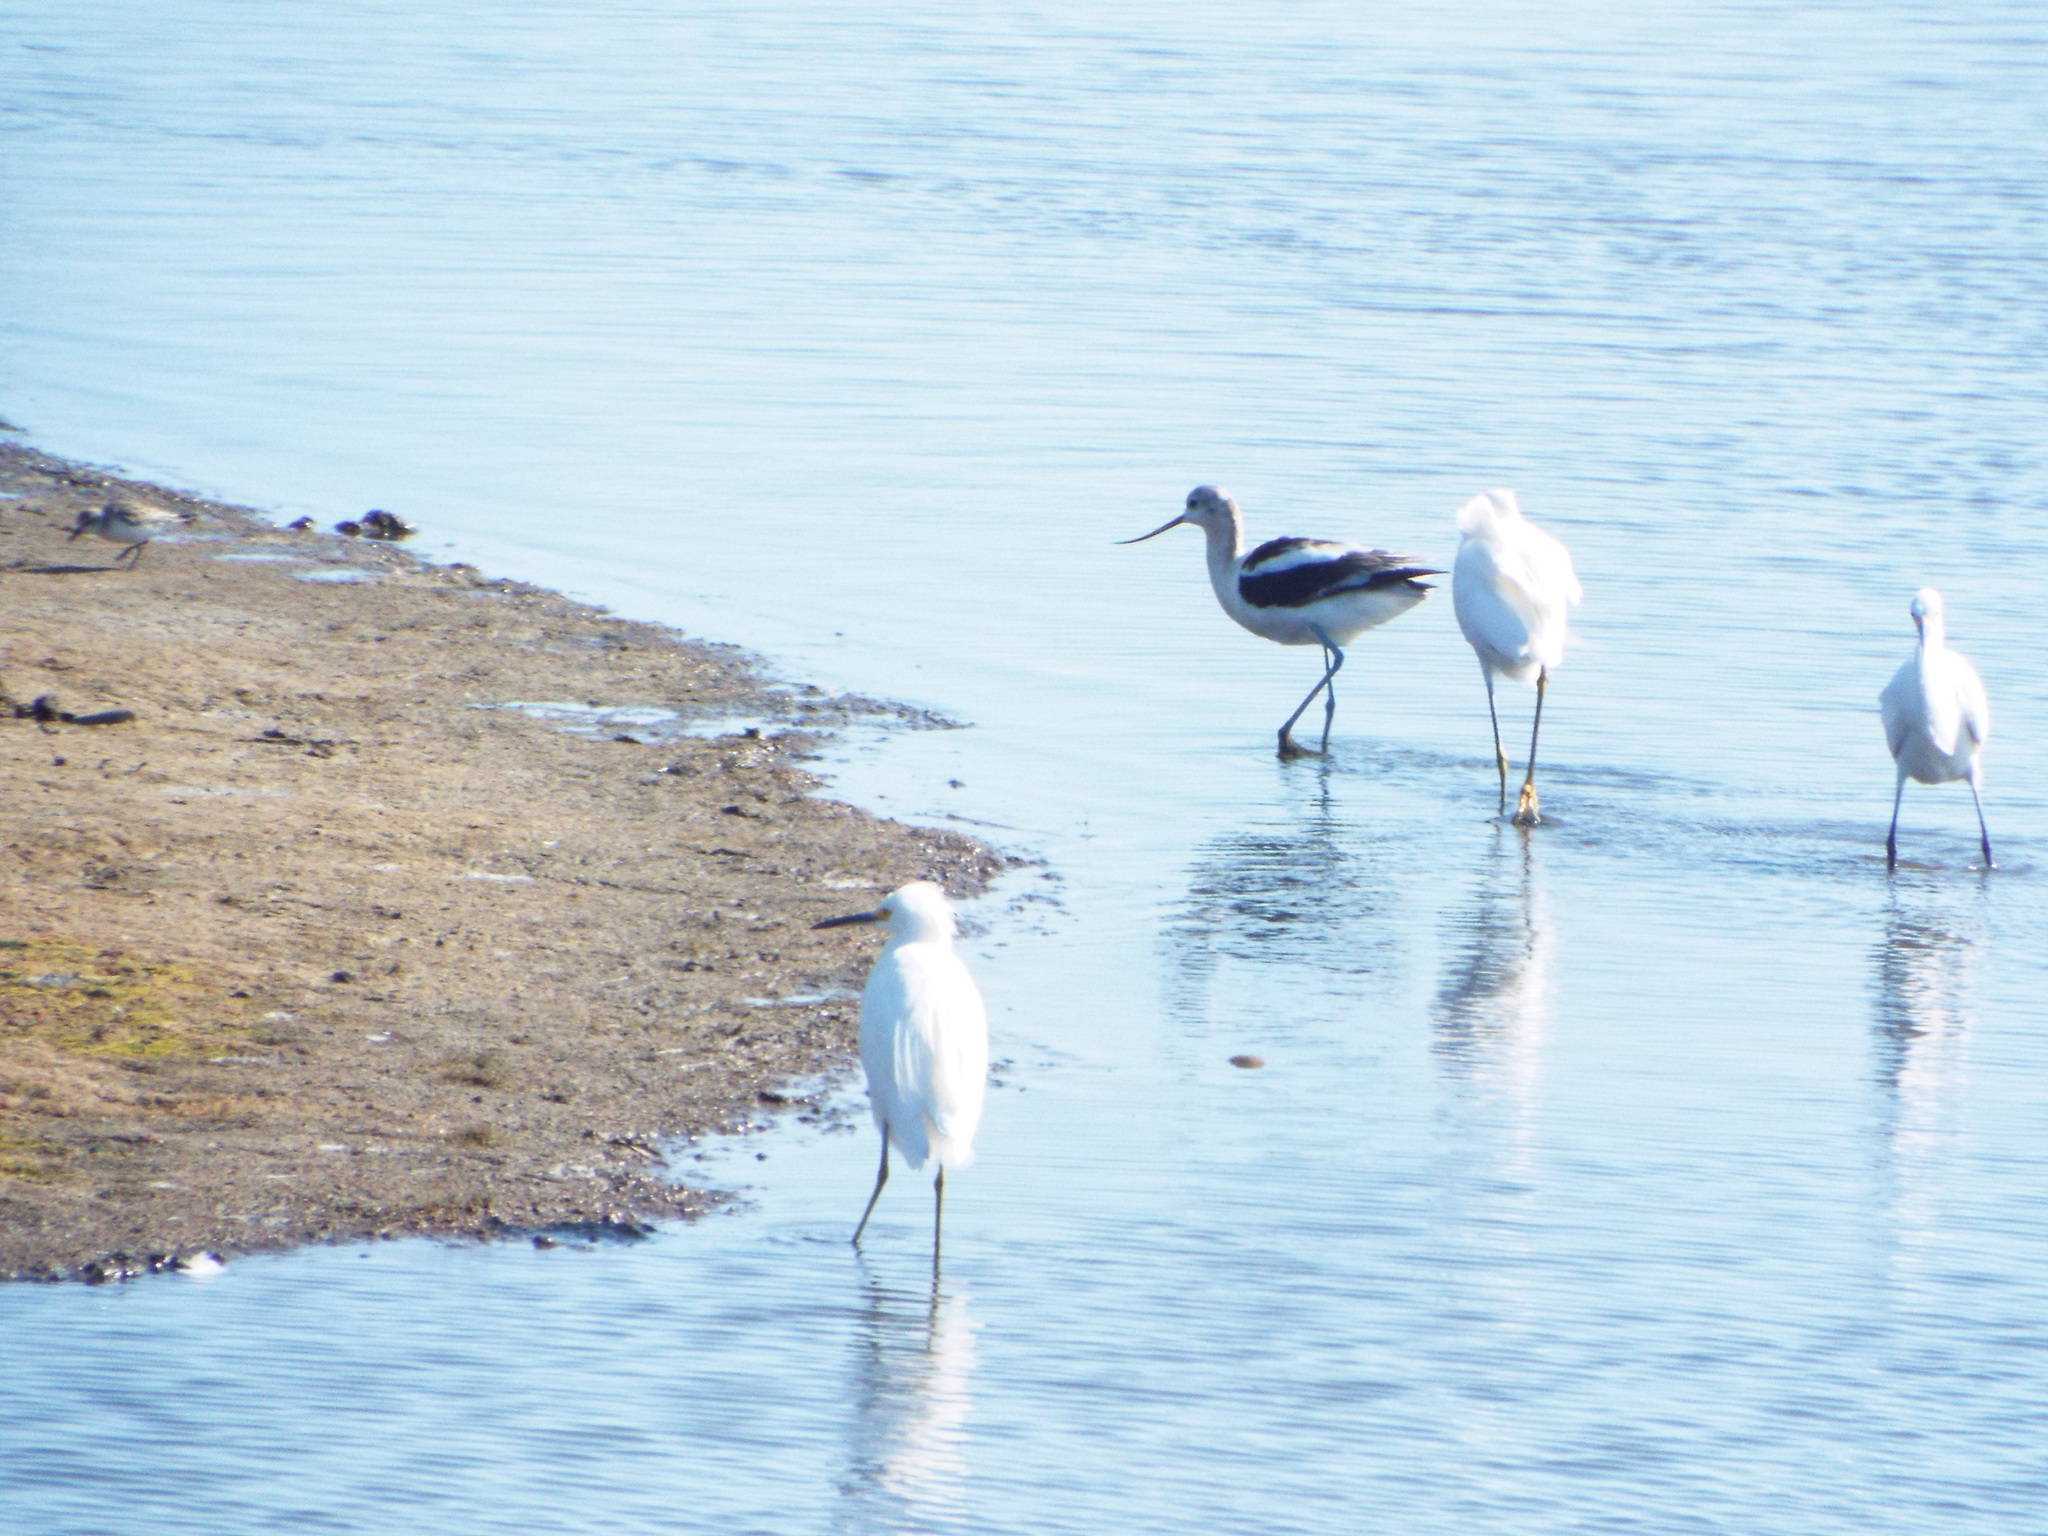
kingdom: Animalia
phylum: Chordata
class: Aves
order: Charadriiformes
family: Recurvirostridae
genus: Recurvirostra
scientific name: Recurvirostra americana
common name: American avocet
